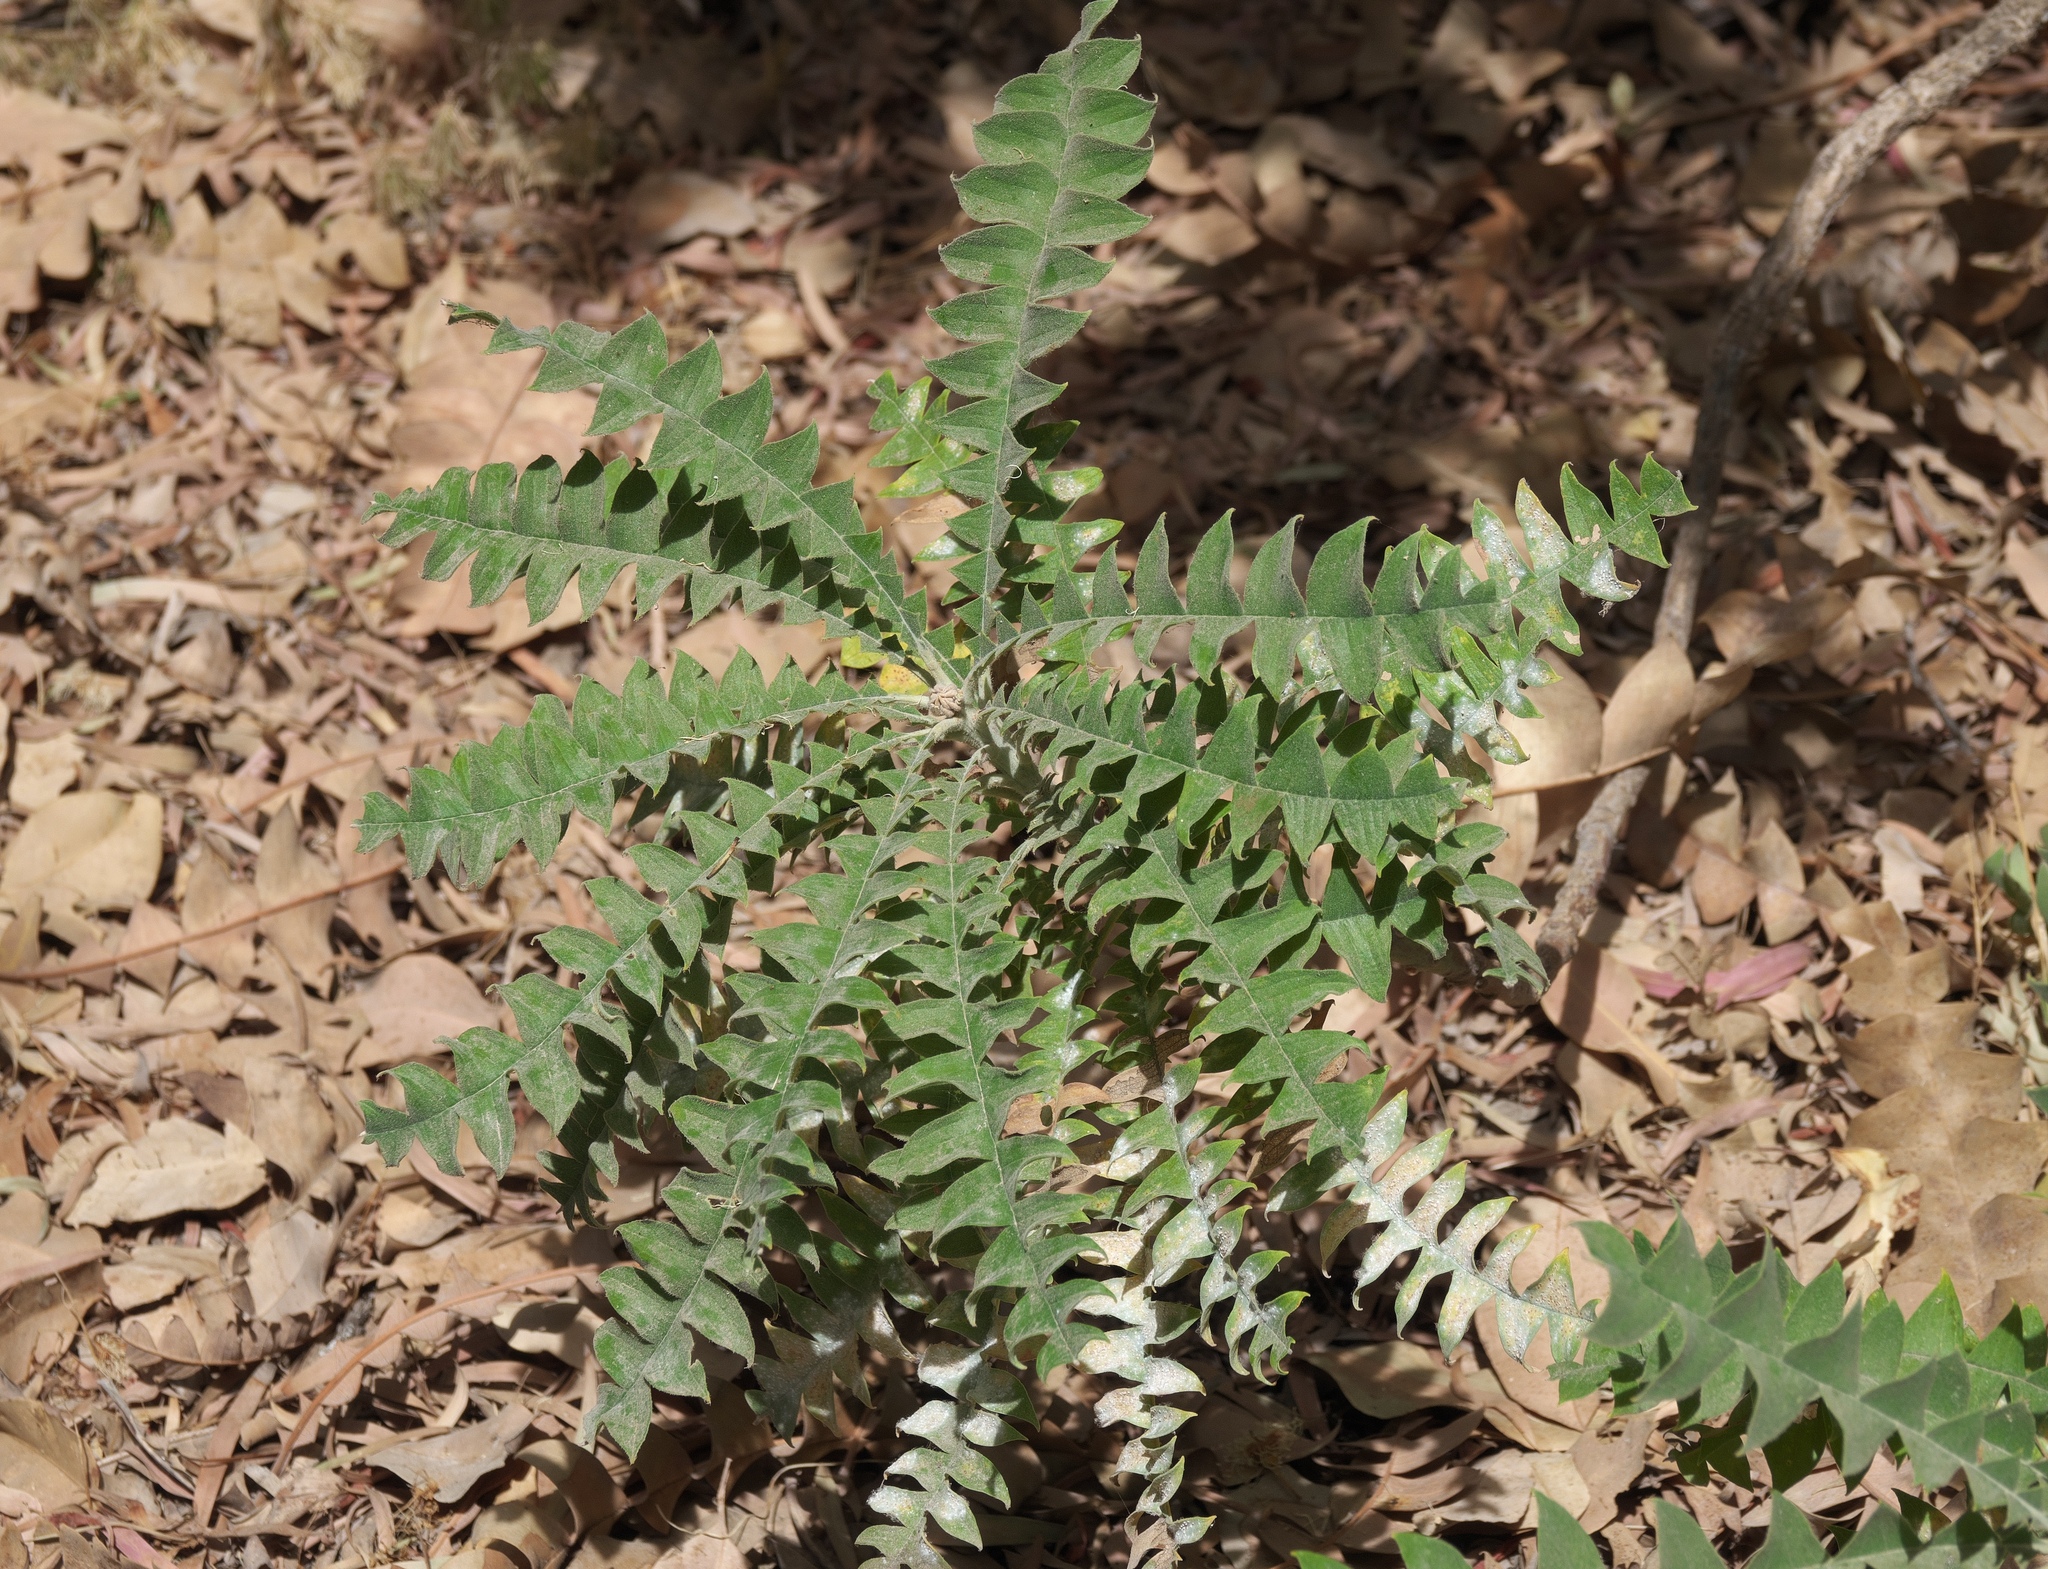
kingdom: Plantae
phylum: Tracheophyta
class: Magnoliopsida
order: Proteales
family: Proteaceae
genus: Banksia
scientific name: Banksia grandis
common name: Giant banksia
